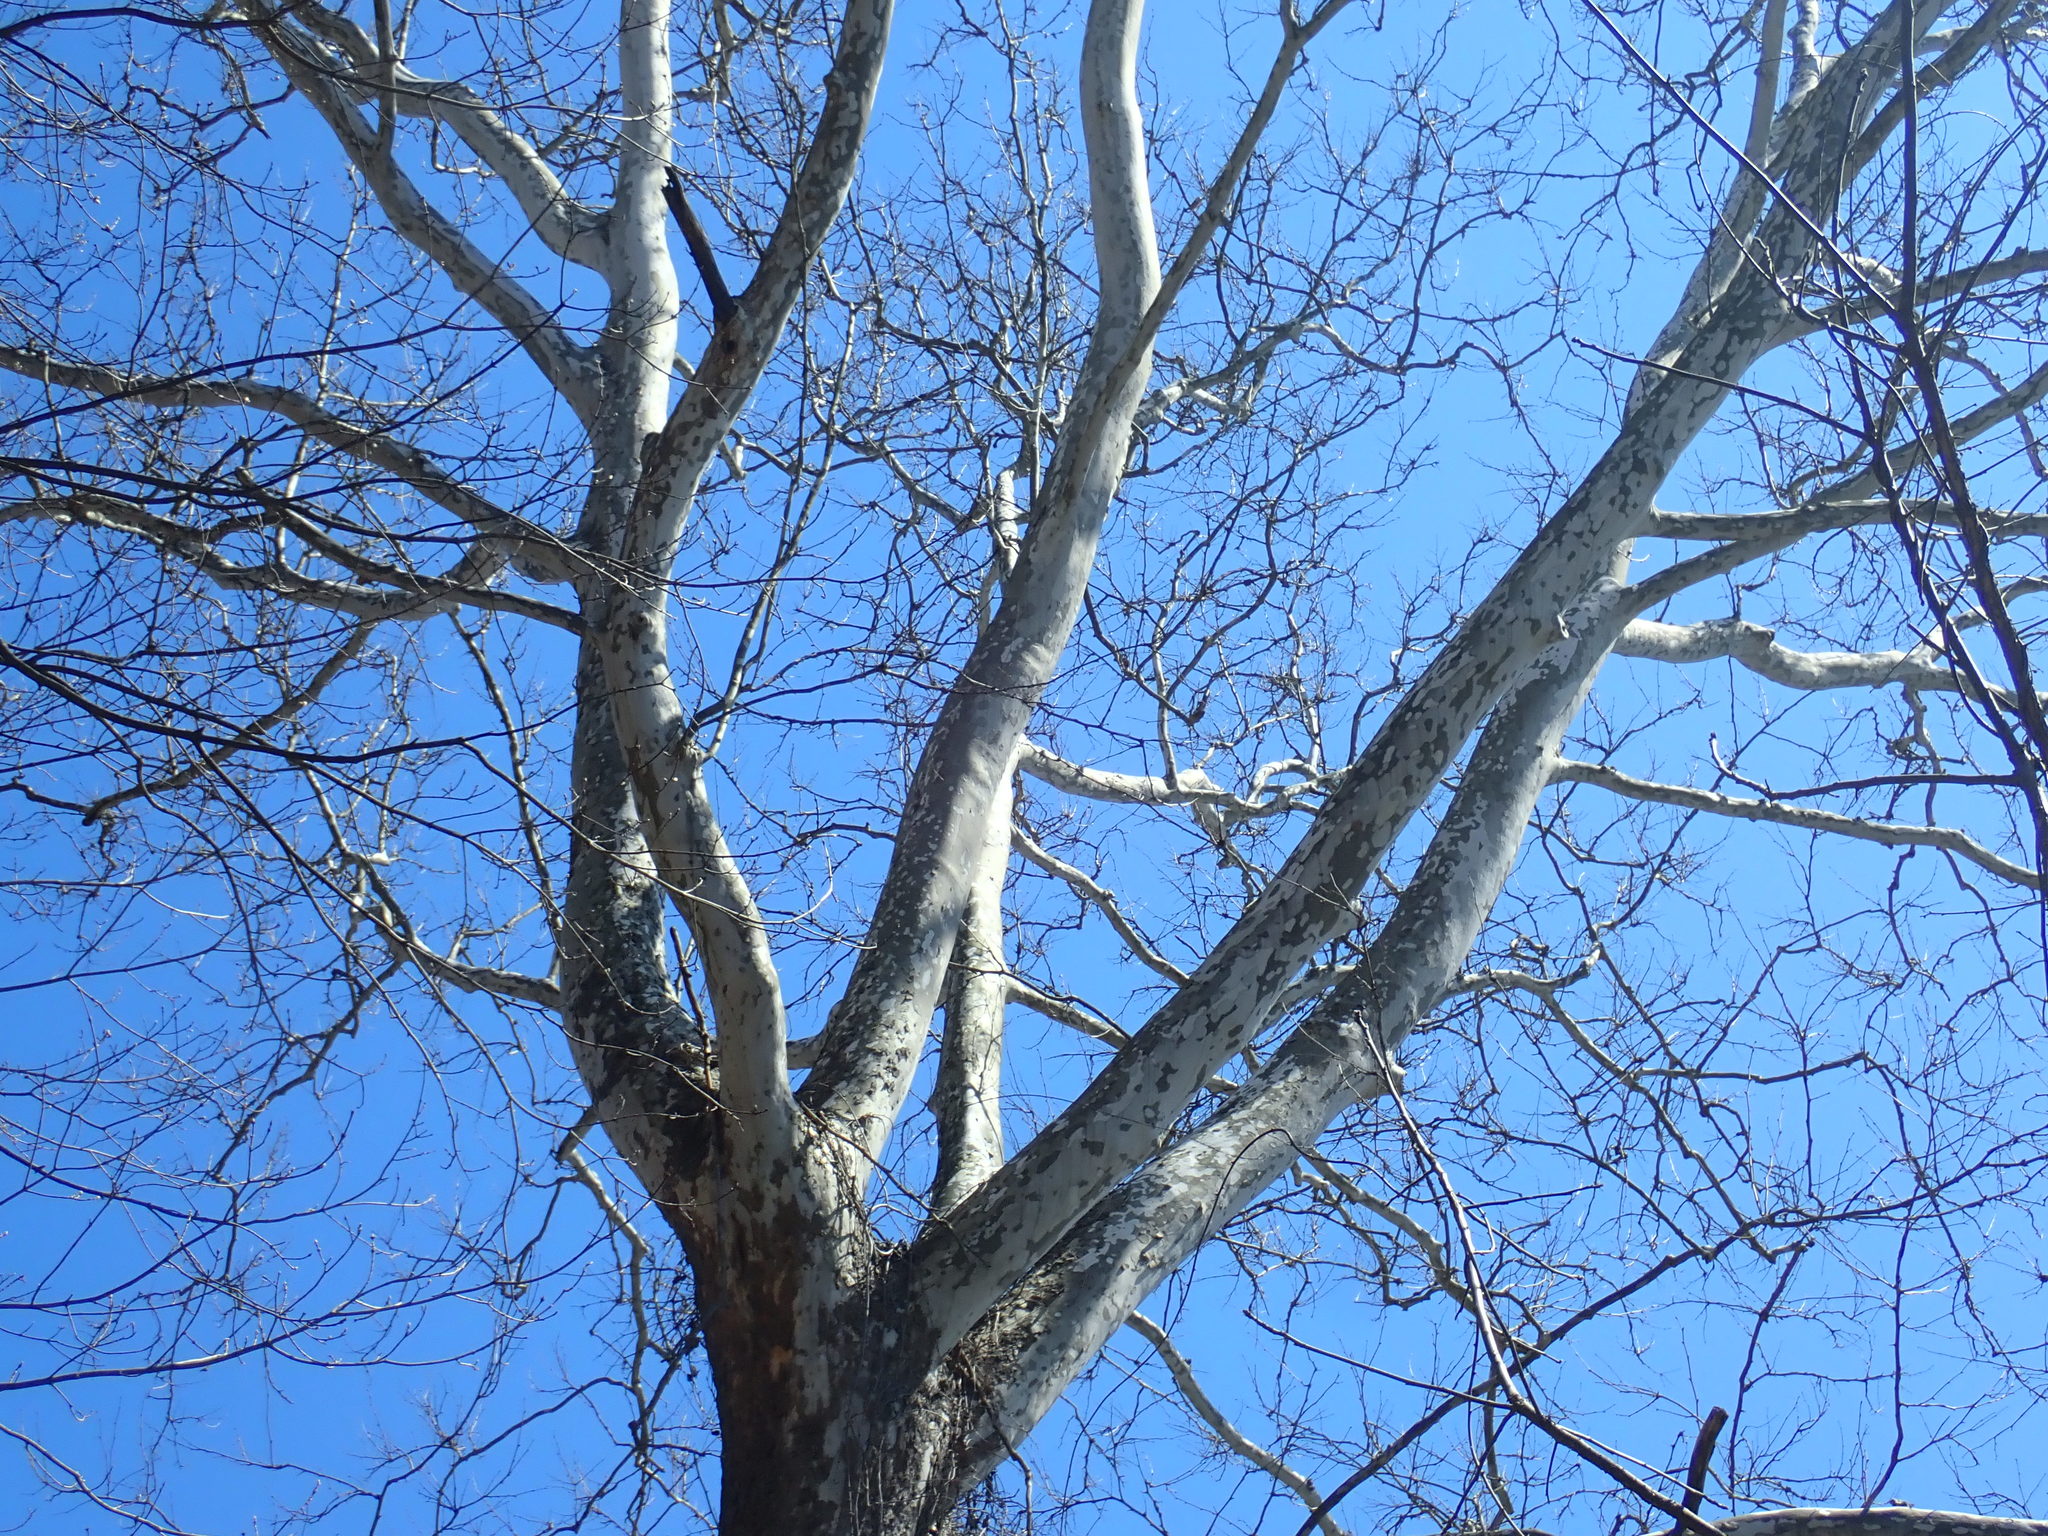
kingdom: Plantae
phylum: Tracheophyta
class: Magnoliopsida
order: Proteales
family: Platanaceae
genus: Platanus
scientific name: Platanus occidentalis
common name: American sycamore
